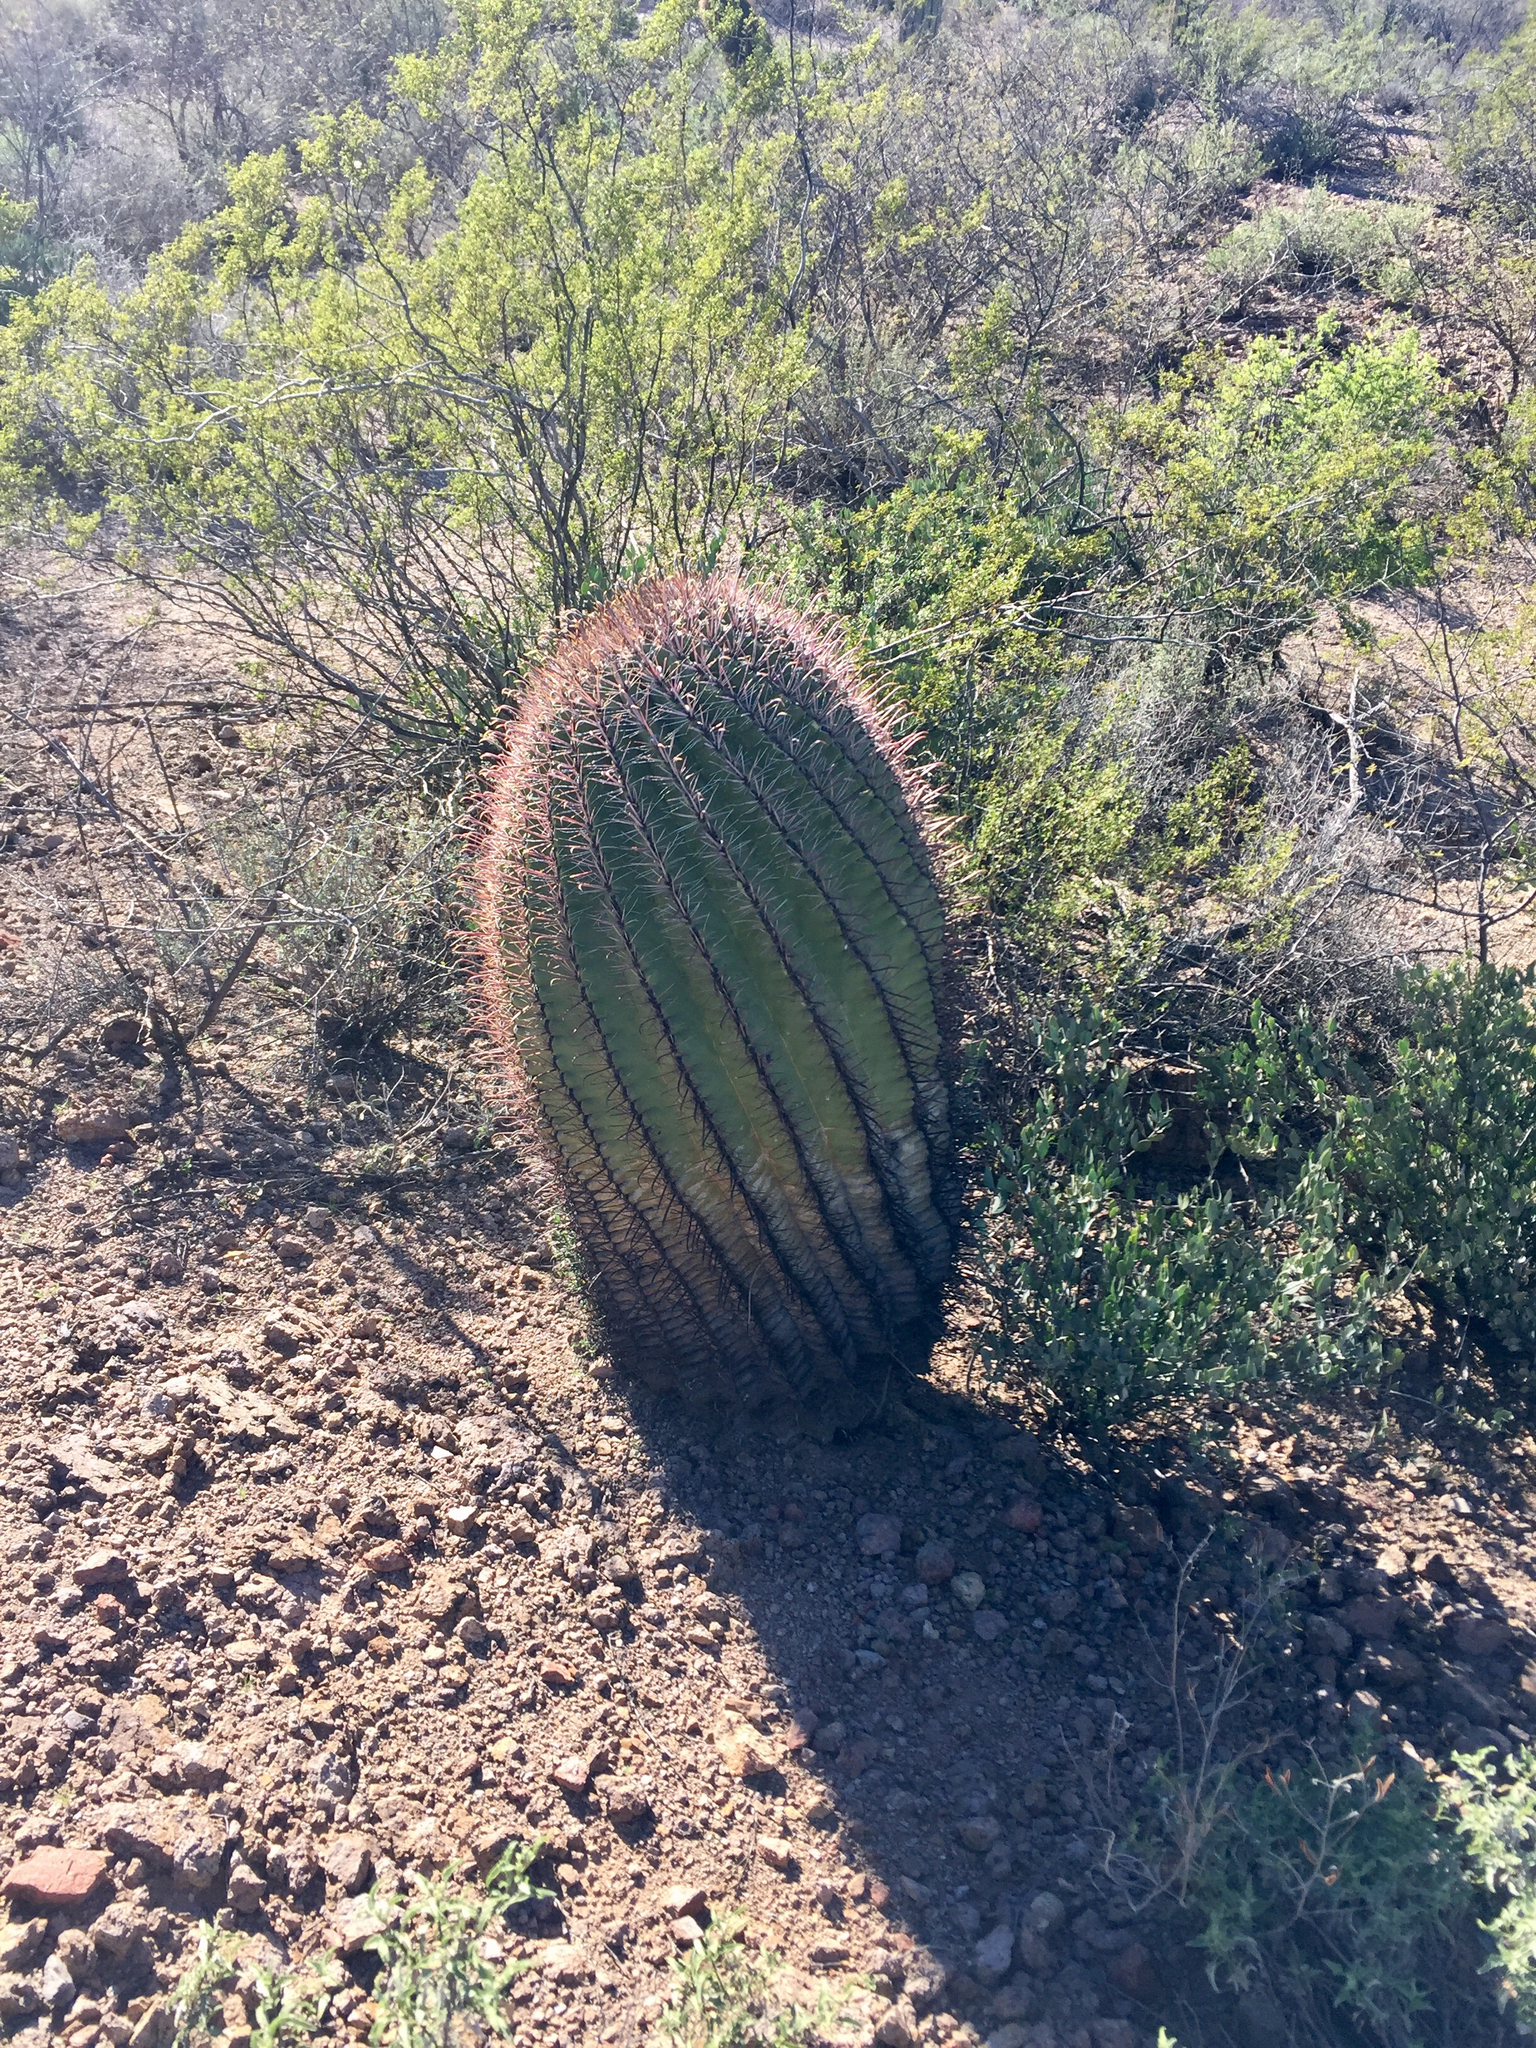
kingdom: Plantae
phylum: Tracheophyta
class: Magnoliopsida
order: Caryophyllales
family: Cactaceae
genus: Ferocactus
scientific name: Ferocactus cylindraceus
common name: California barrel cactus
